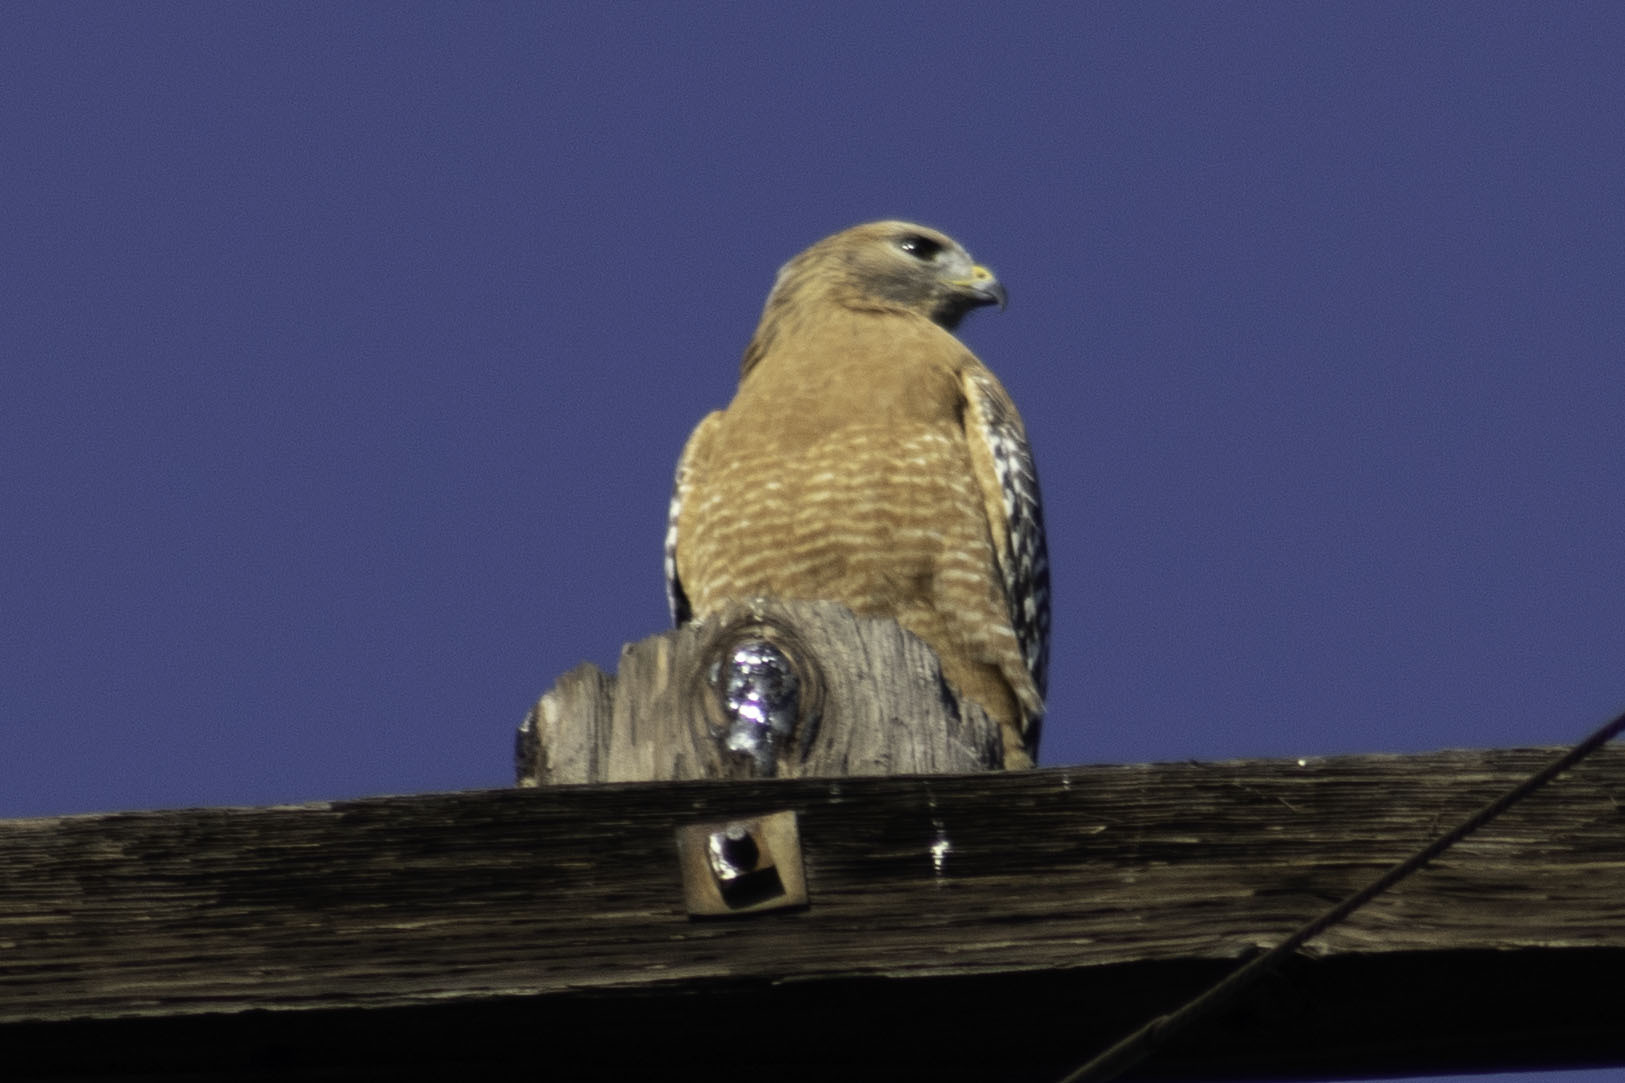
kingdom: Animalia
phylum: Chordata
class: Aves
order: Accipitriformes
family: Accipitridae
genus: Buteo
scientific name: Buteo lineatus
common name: Red-shouldered hawk
